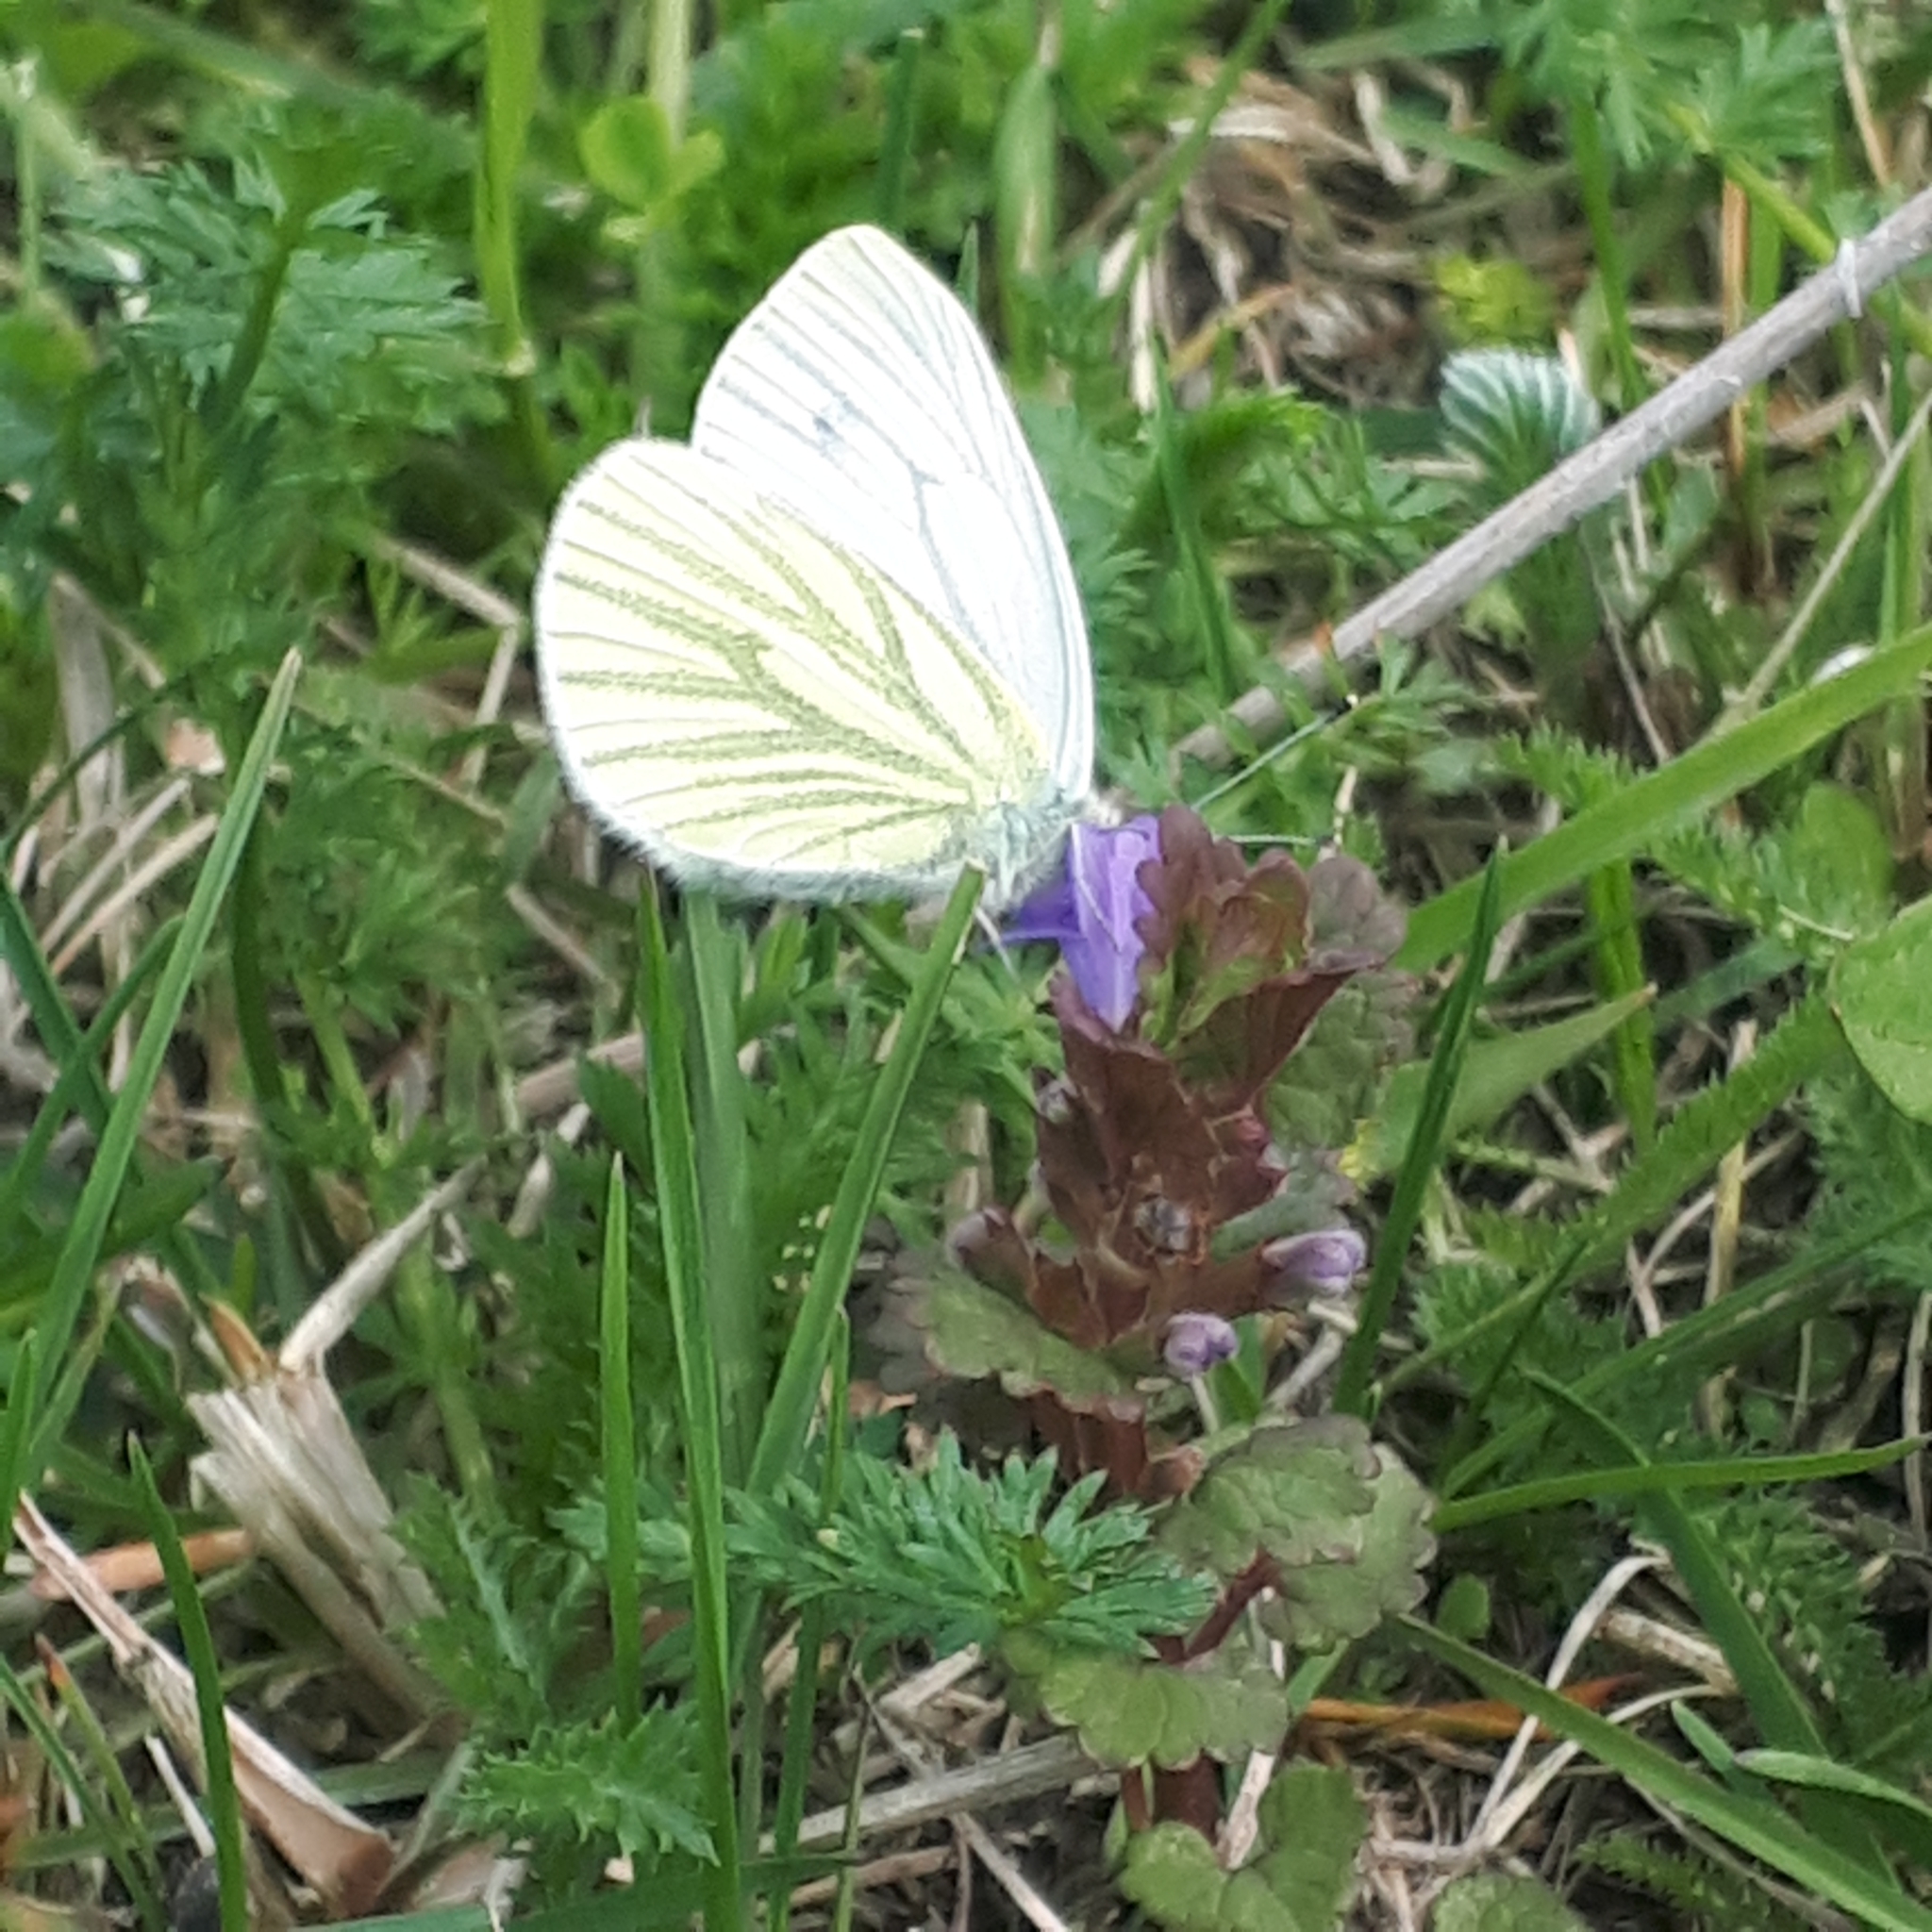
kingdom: Animalia
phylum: Arthropoda
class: Insecta
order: Lepidoptera
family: Pieridae
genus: Pieris
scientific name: Pieris napi
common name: Green-veined white
